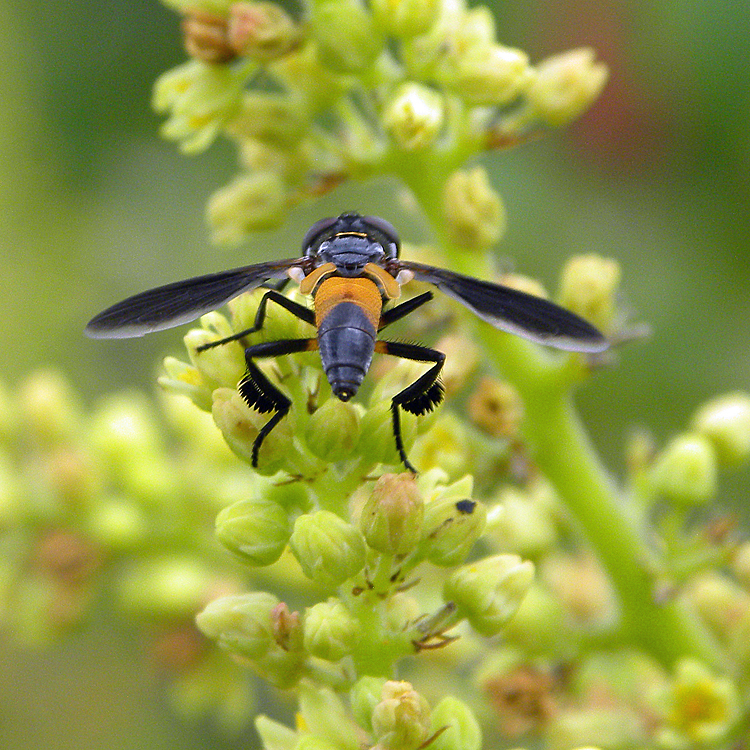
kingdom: Animalia
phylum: Arthropoda
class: Insecta
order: Diptera
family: Tachinidae
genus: Trichopoda
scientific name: Trichopoda pennipes
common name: Tachinid fly
